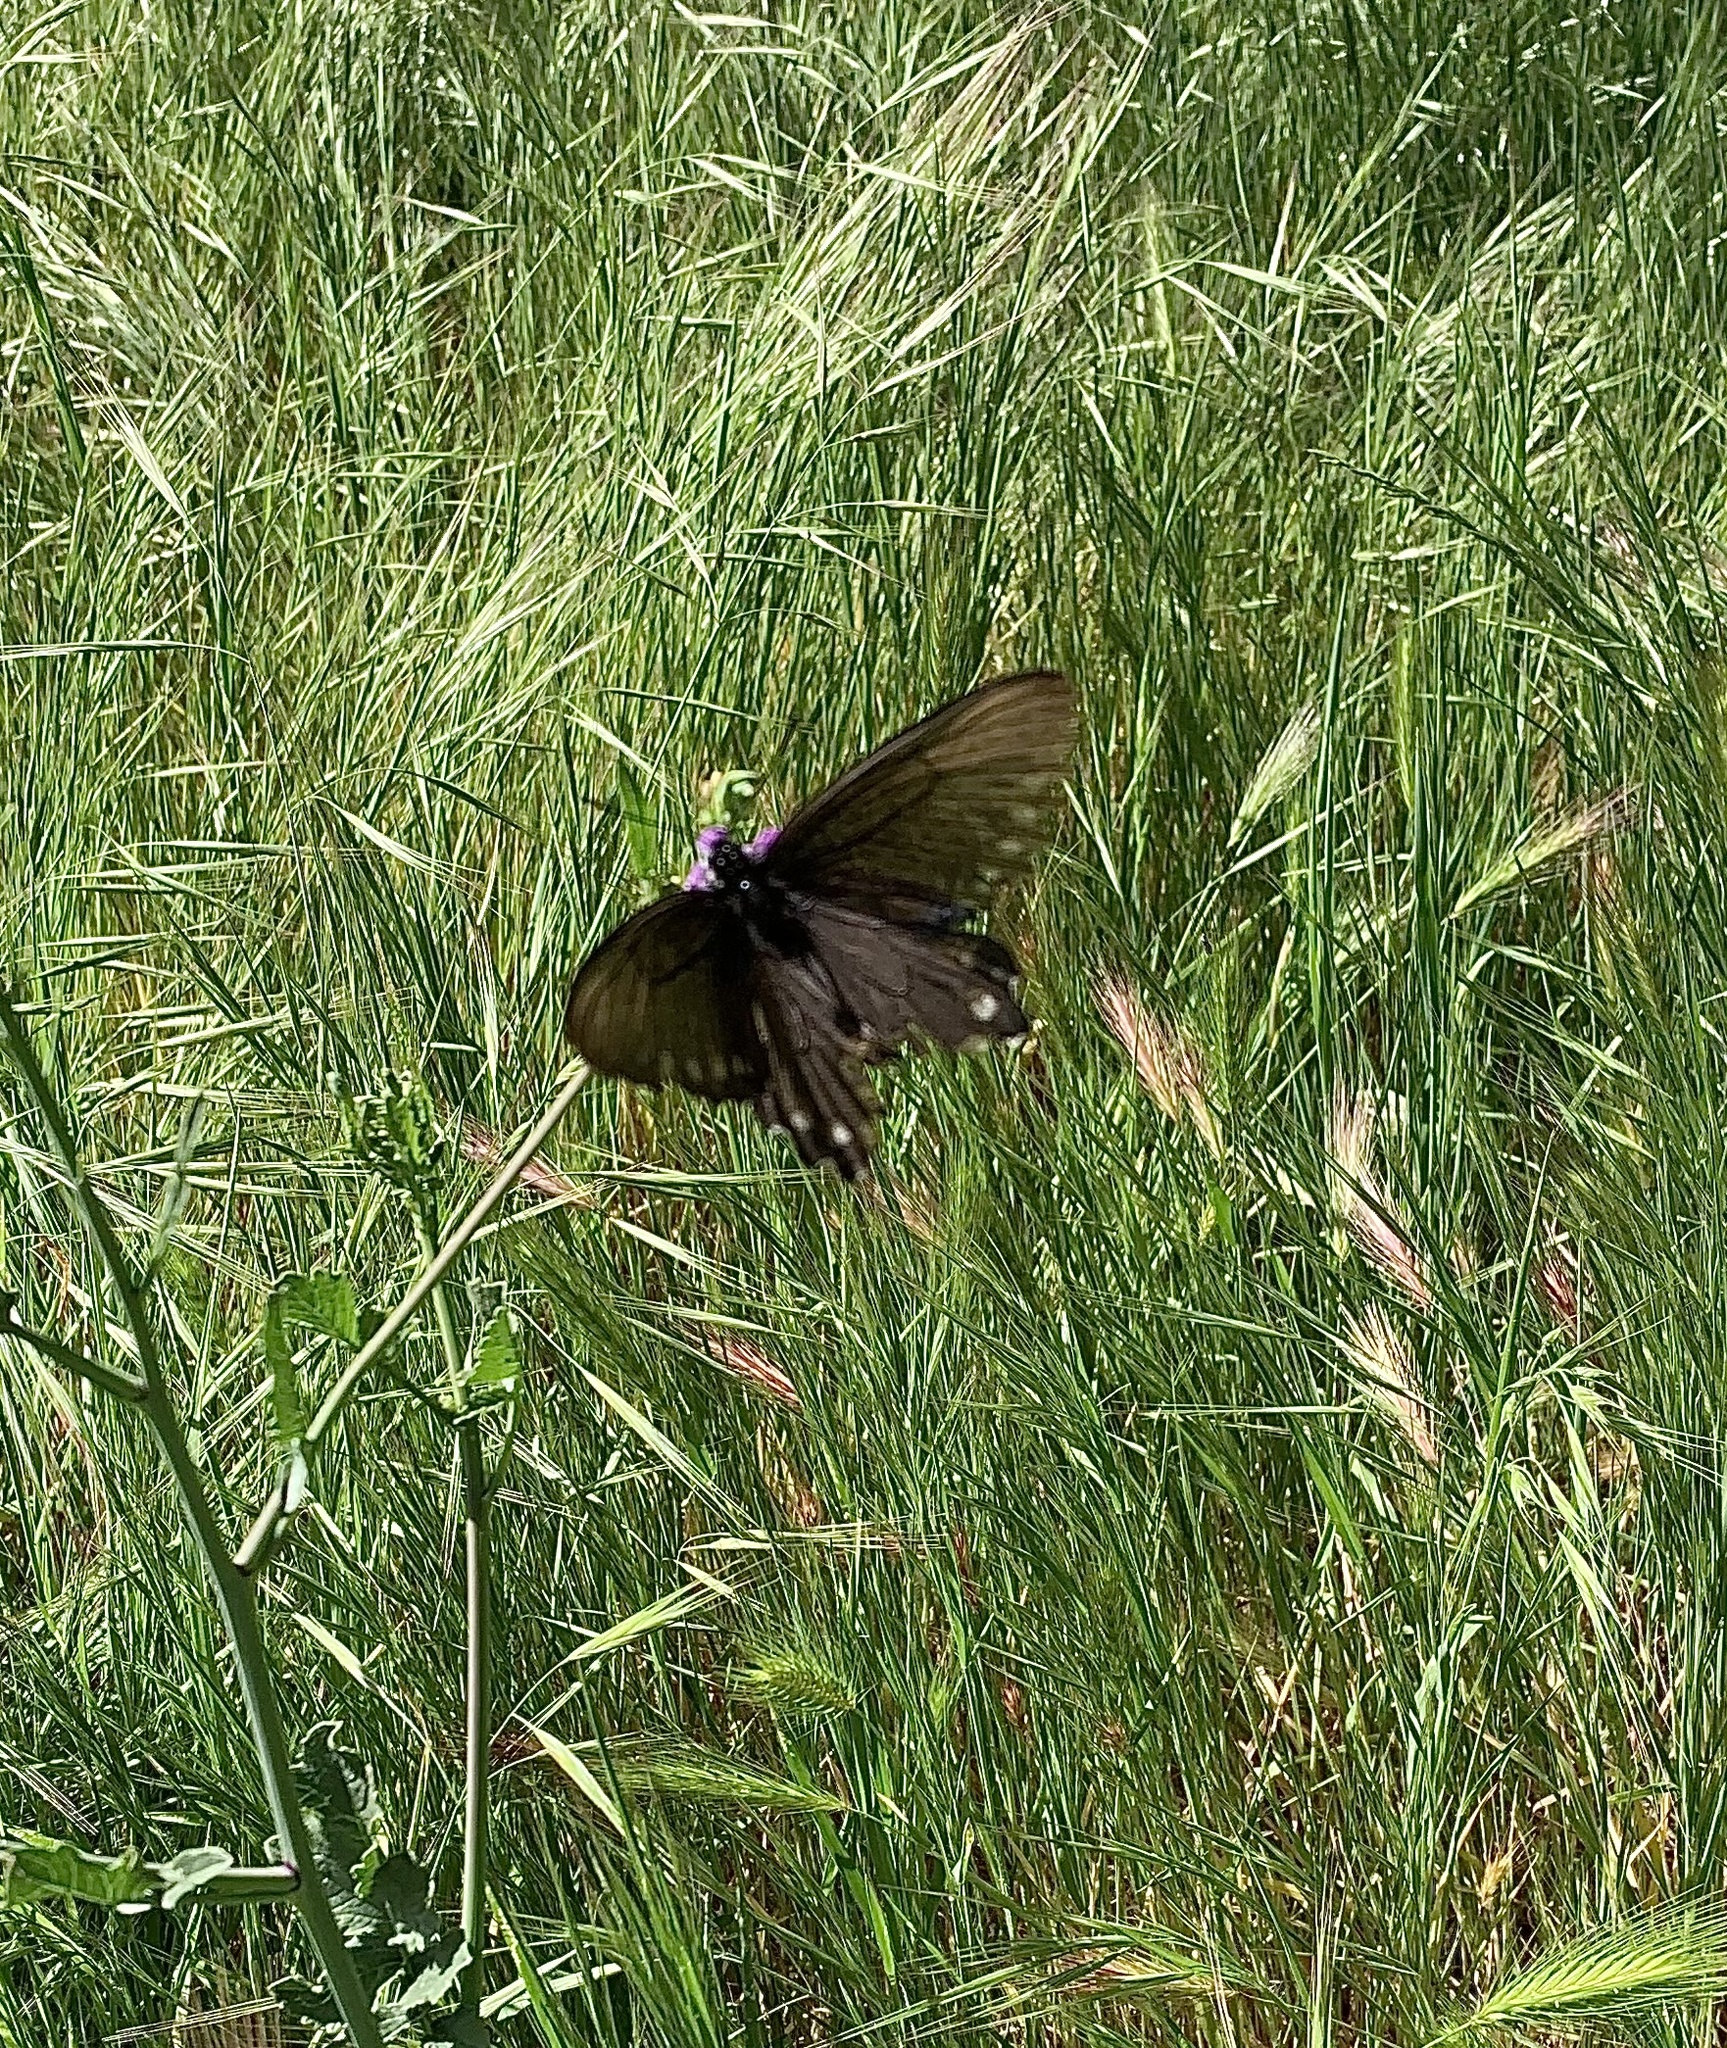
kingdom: Animalia
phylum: Arthropoda
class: Insecta
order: Lepidoptera
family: Papilionidae
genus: Battus
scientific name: Battus philenor
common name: Pipevine swallowtail
